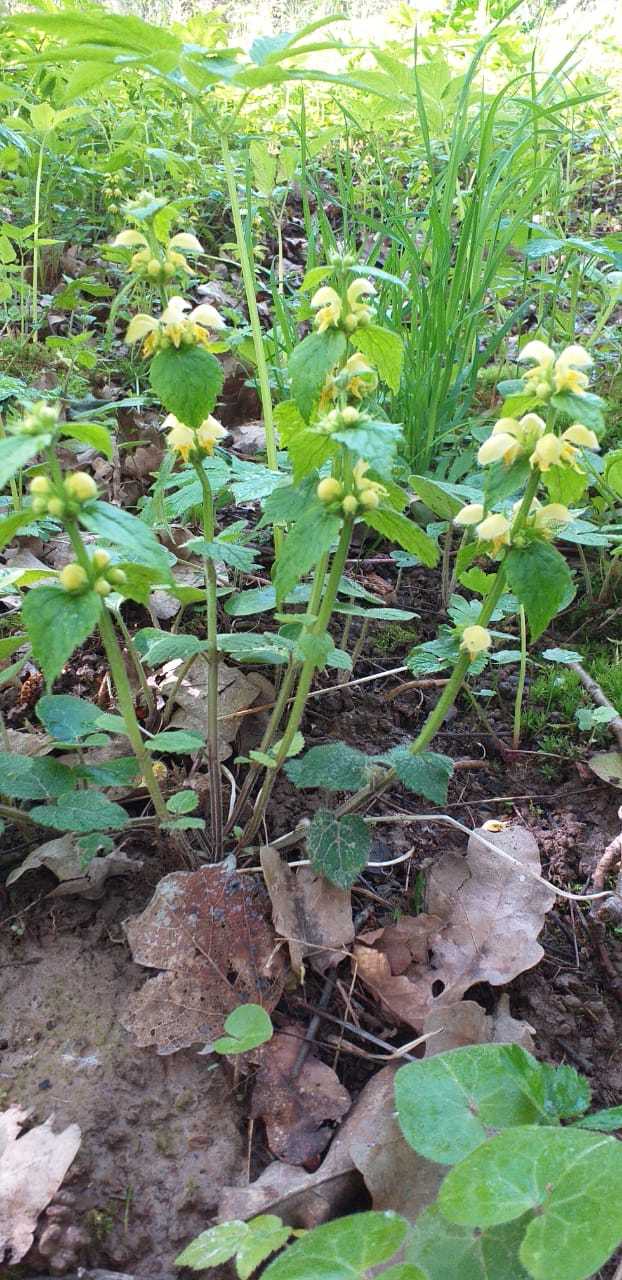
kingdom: Plantae
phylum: Tracheophyta
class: Magnoliopsida
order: Lamiales
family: Lamiaceae
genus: Lamium
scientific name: Lamium galeobdolon
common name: Yellow archangel
